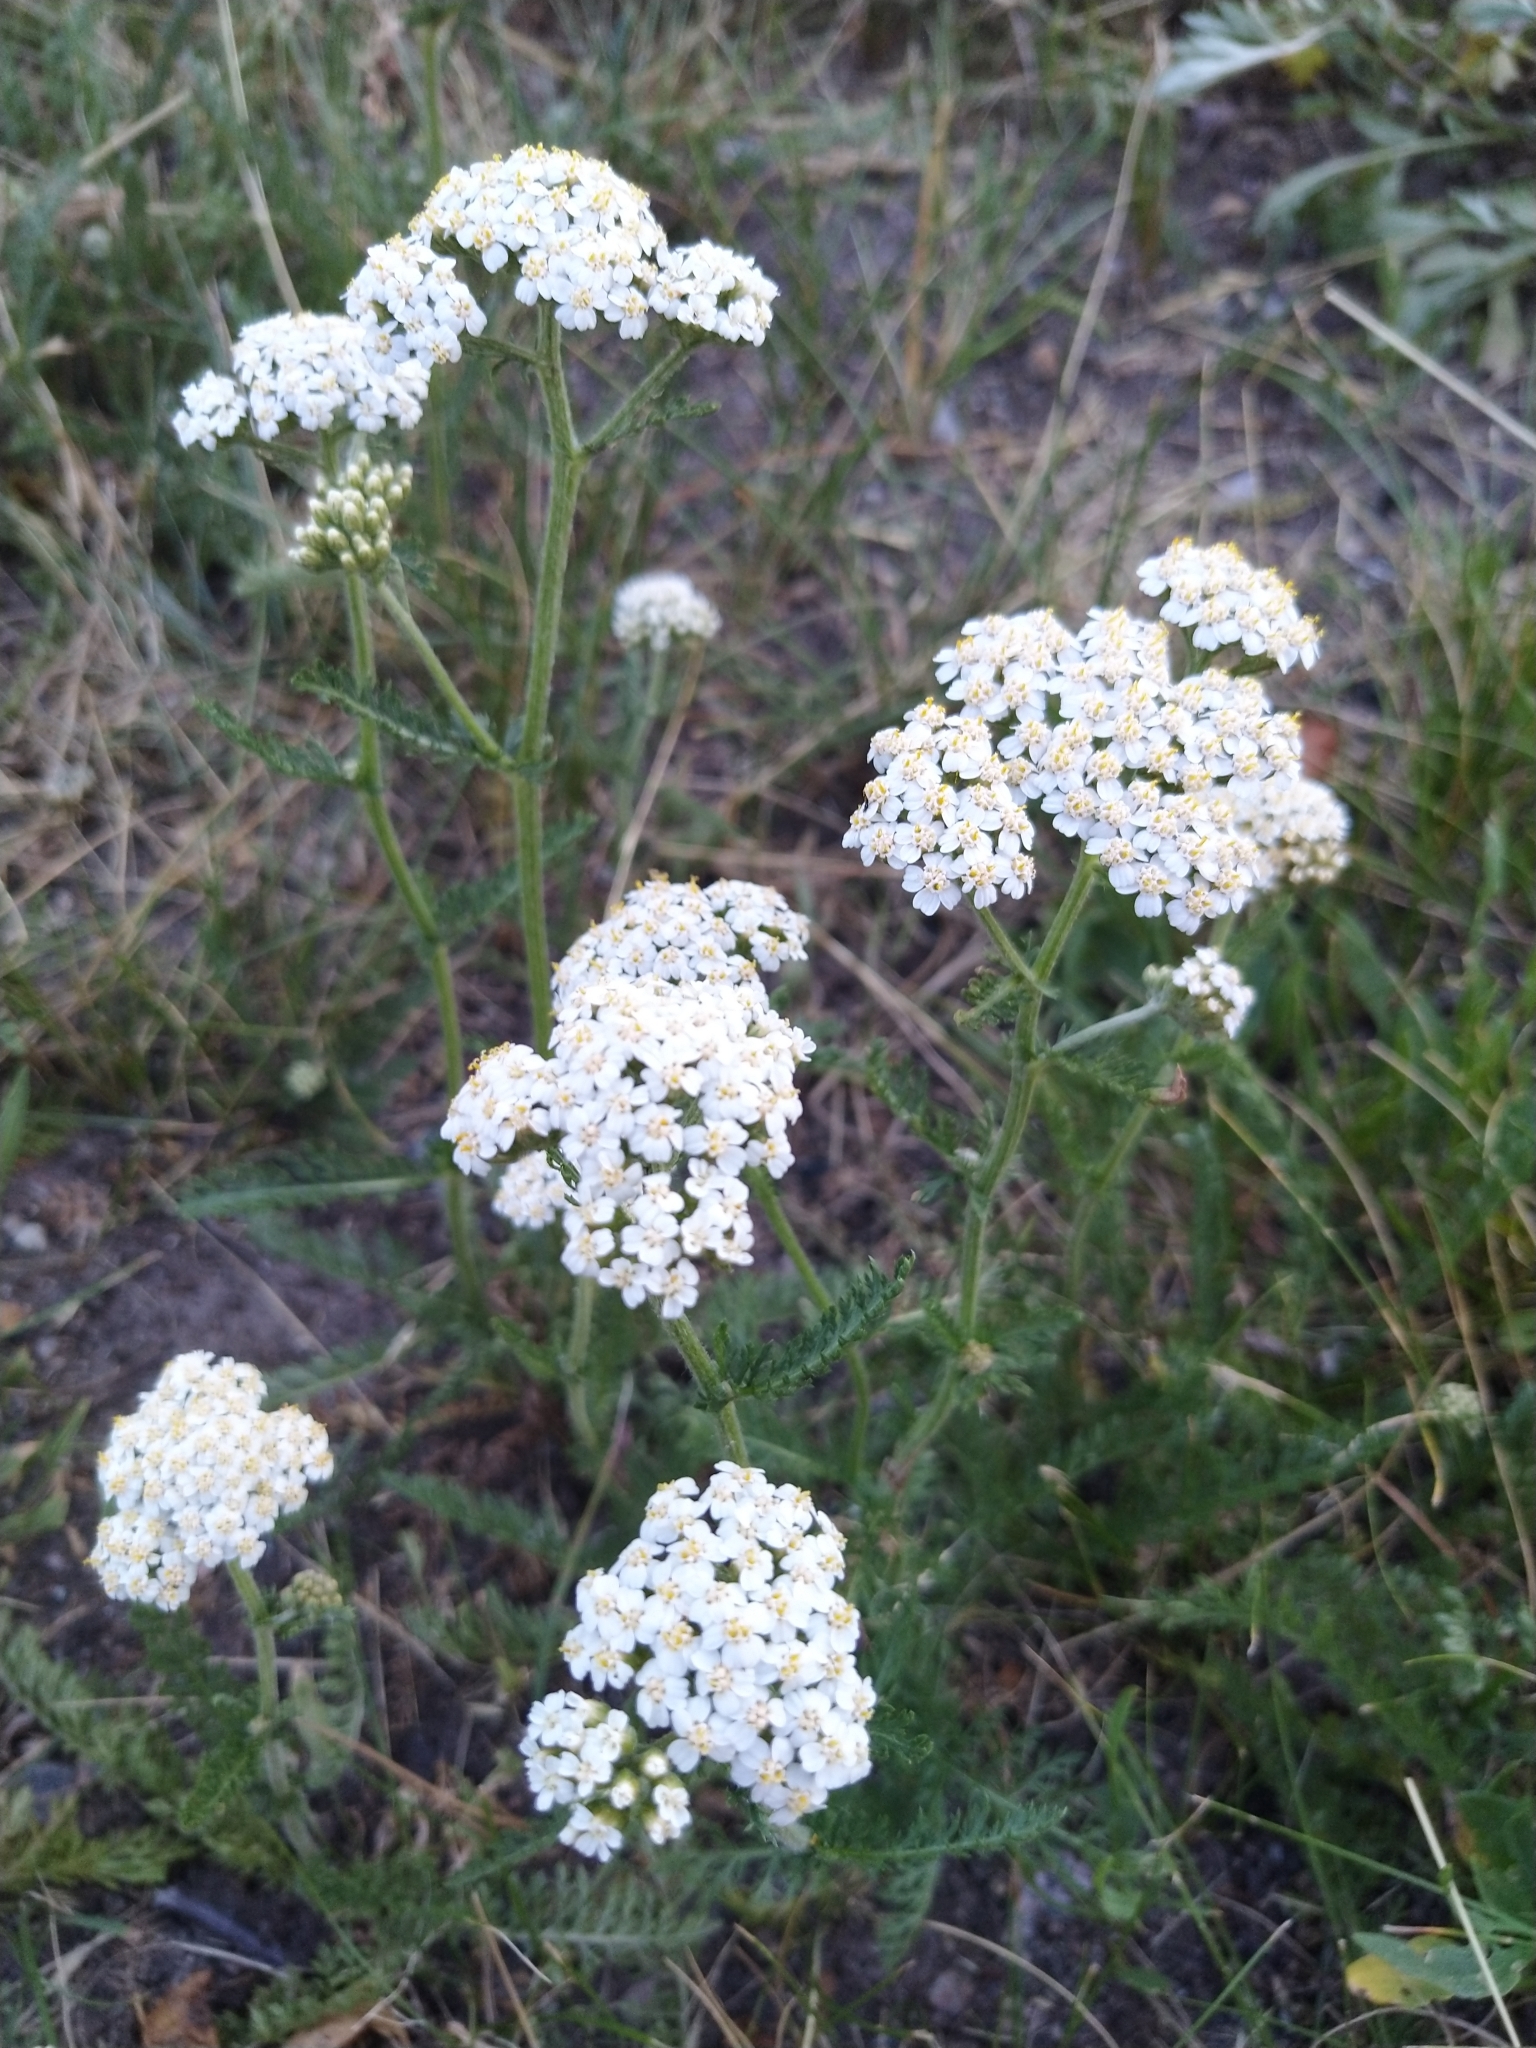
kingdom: Plantae
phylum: Tracheophyta
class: Magnoliopsida
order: Asterales
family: Asteraceae
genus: Achillea
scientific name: Achillea millefolium
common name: Yarrow
